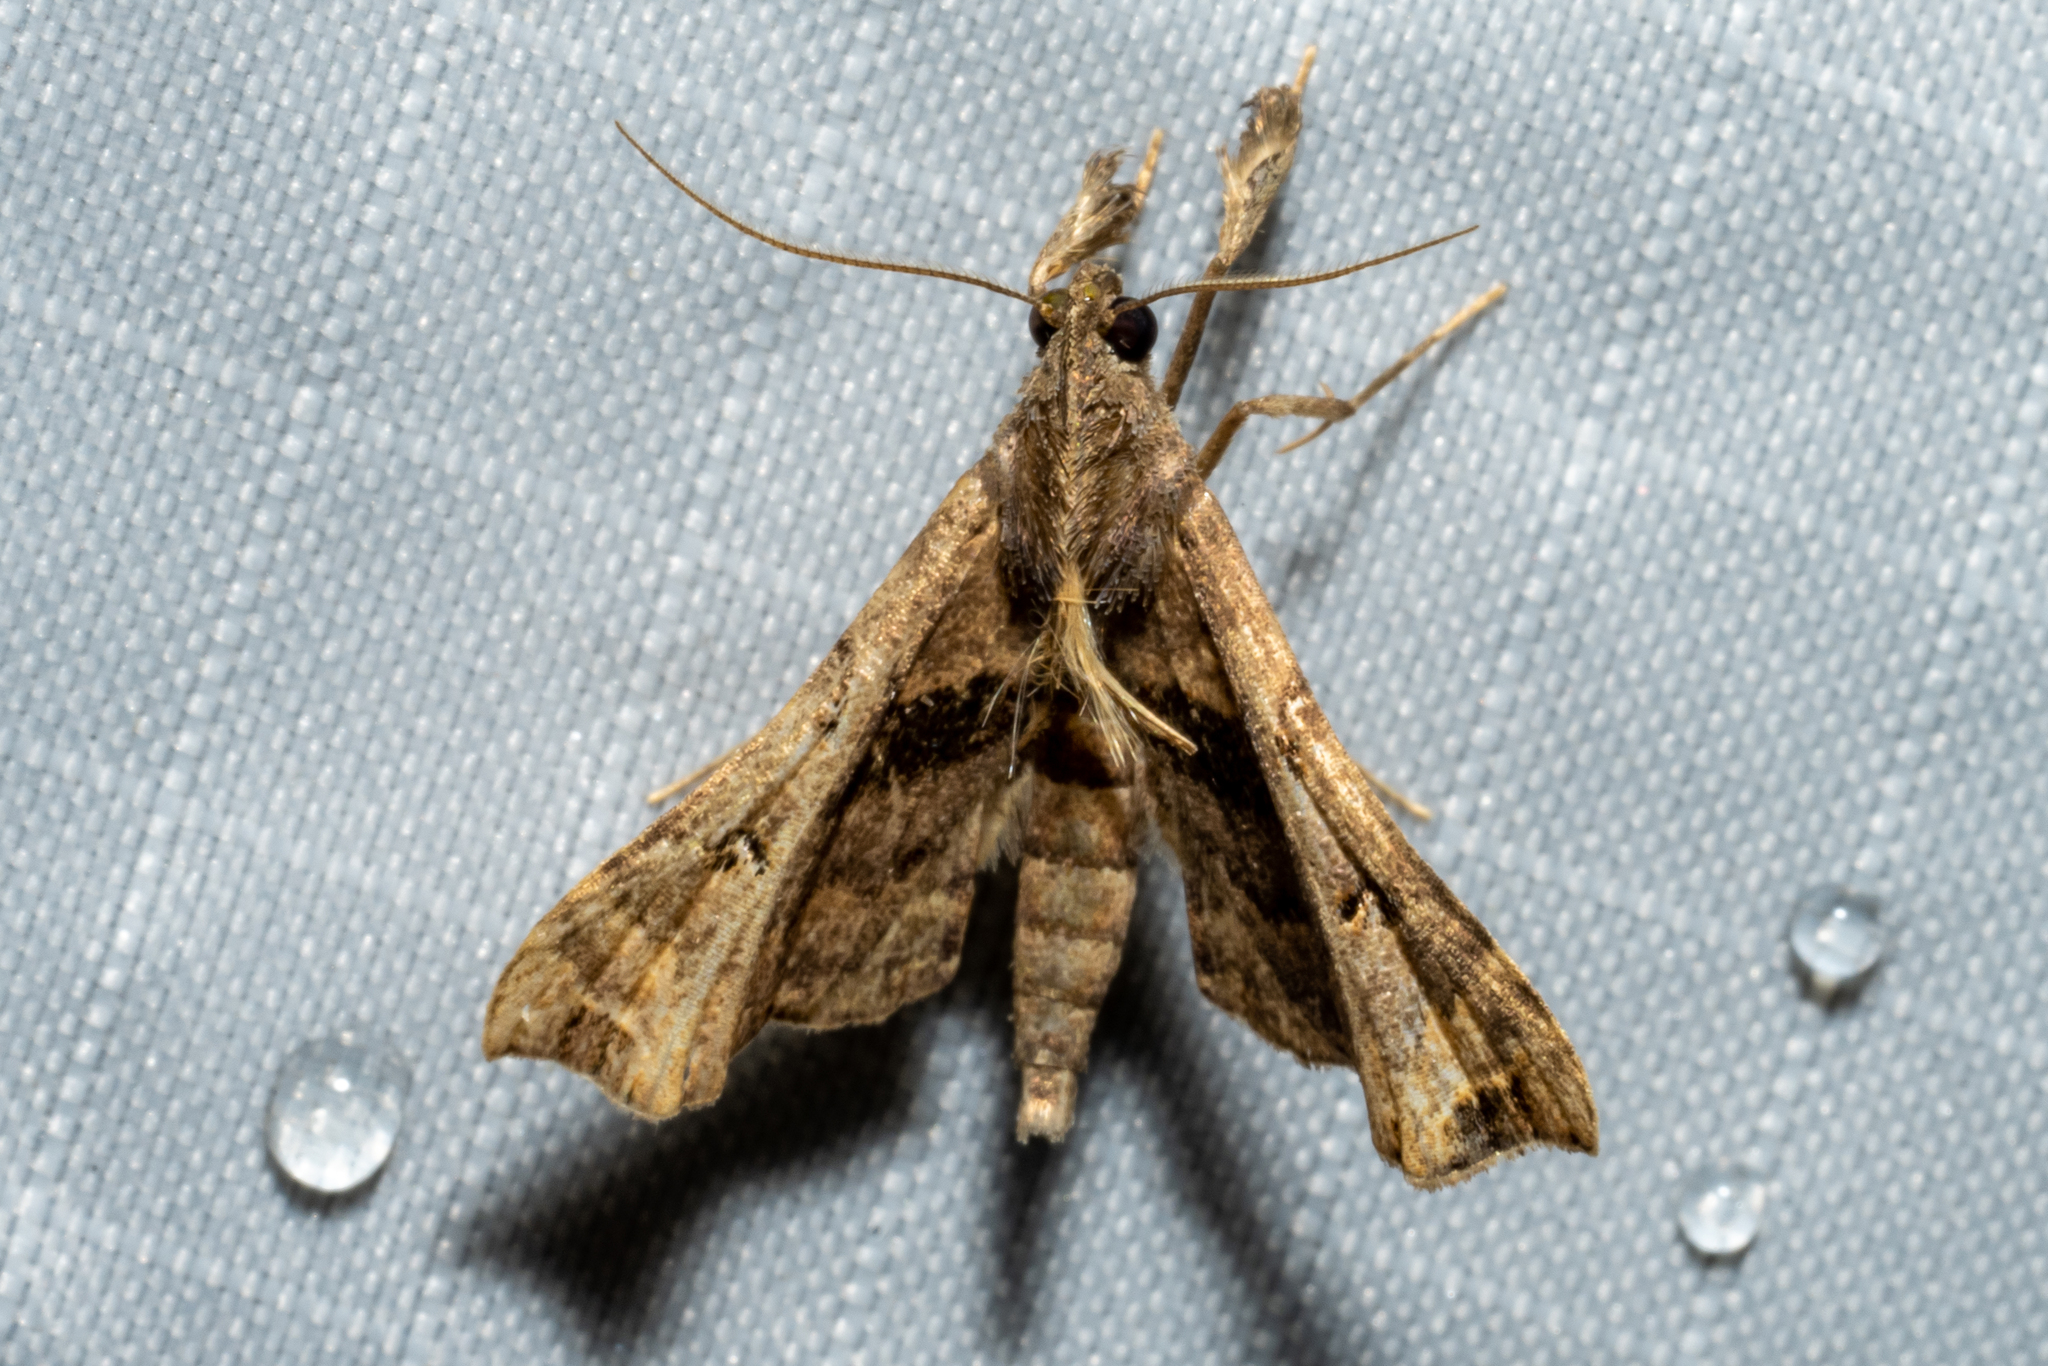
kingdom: Animalia
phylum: Arthropoda
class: Insecta
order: Lepidoptera
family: Erebidae
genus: Palthis
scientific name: Palthis asopialis
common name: Faint-spotted palthis moth
